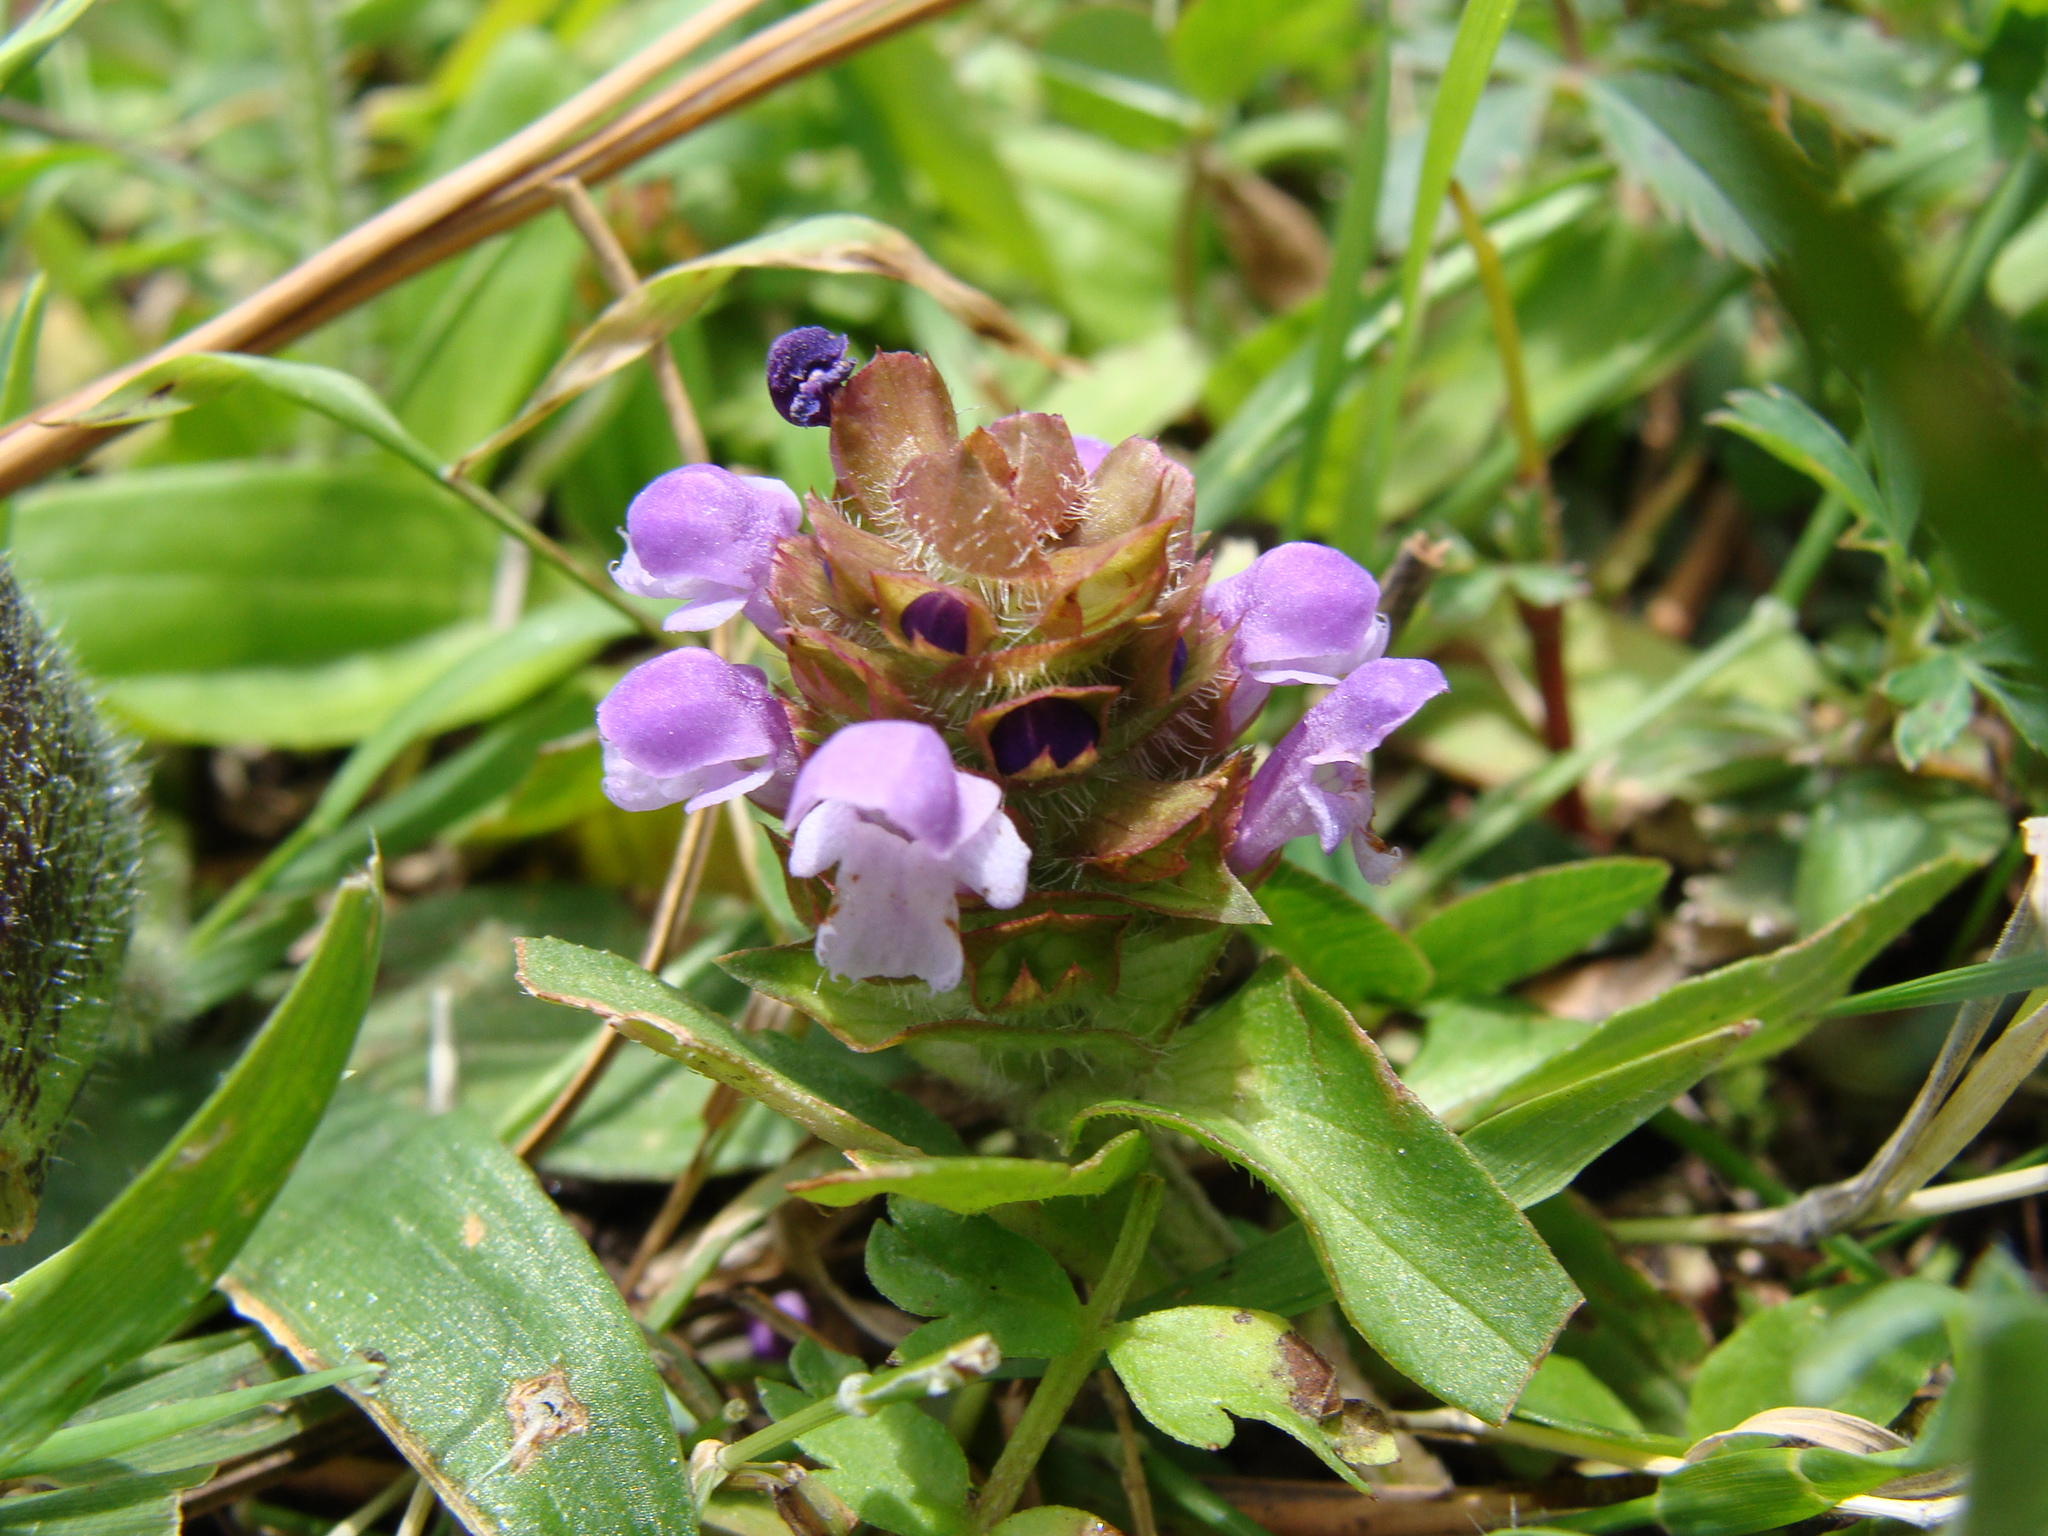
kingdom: Plantae
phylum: Tracheophyta
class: Magnoliopsida
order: Lamiales
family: Lamiaceae
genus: Prunella
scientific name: Prunella vulgaris
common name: Heal-all
